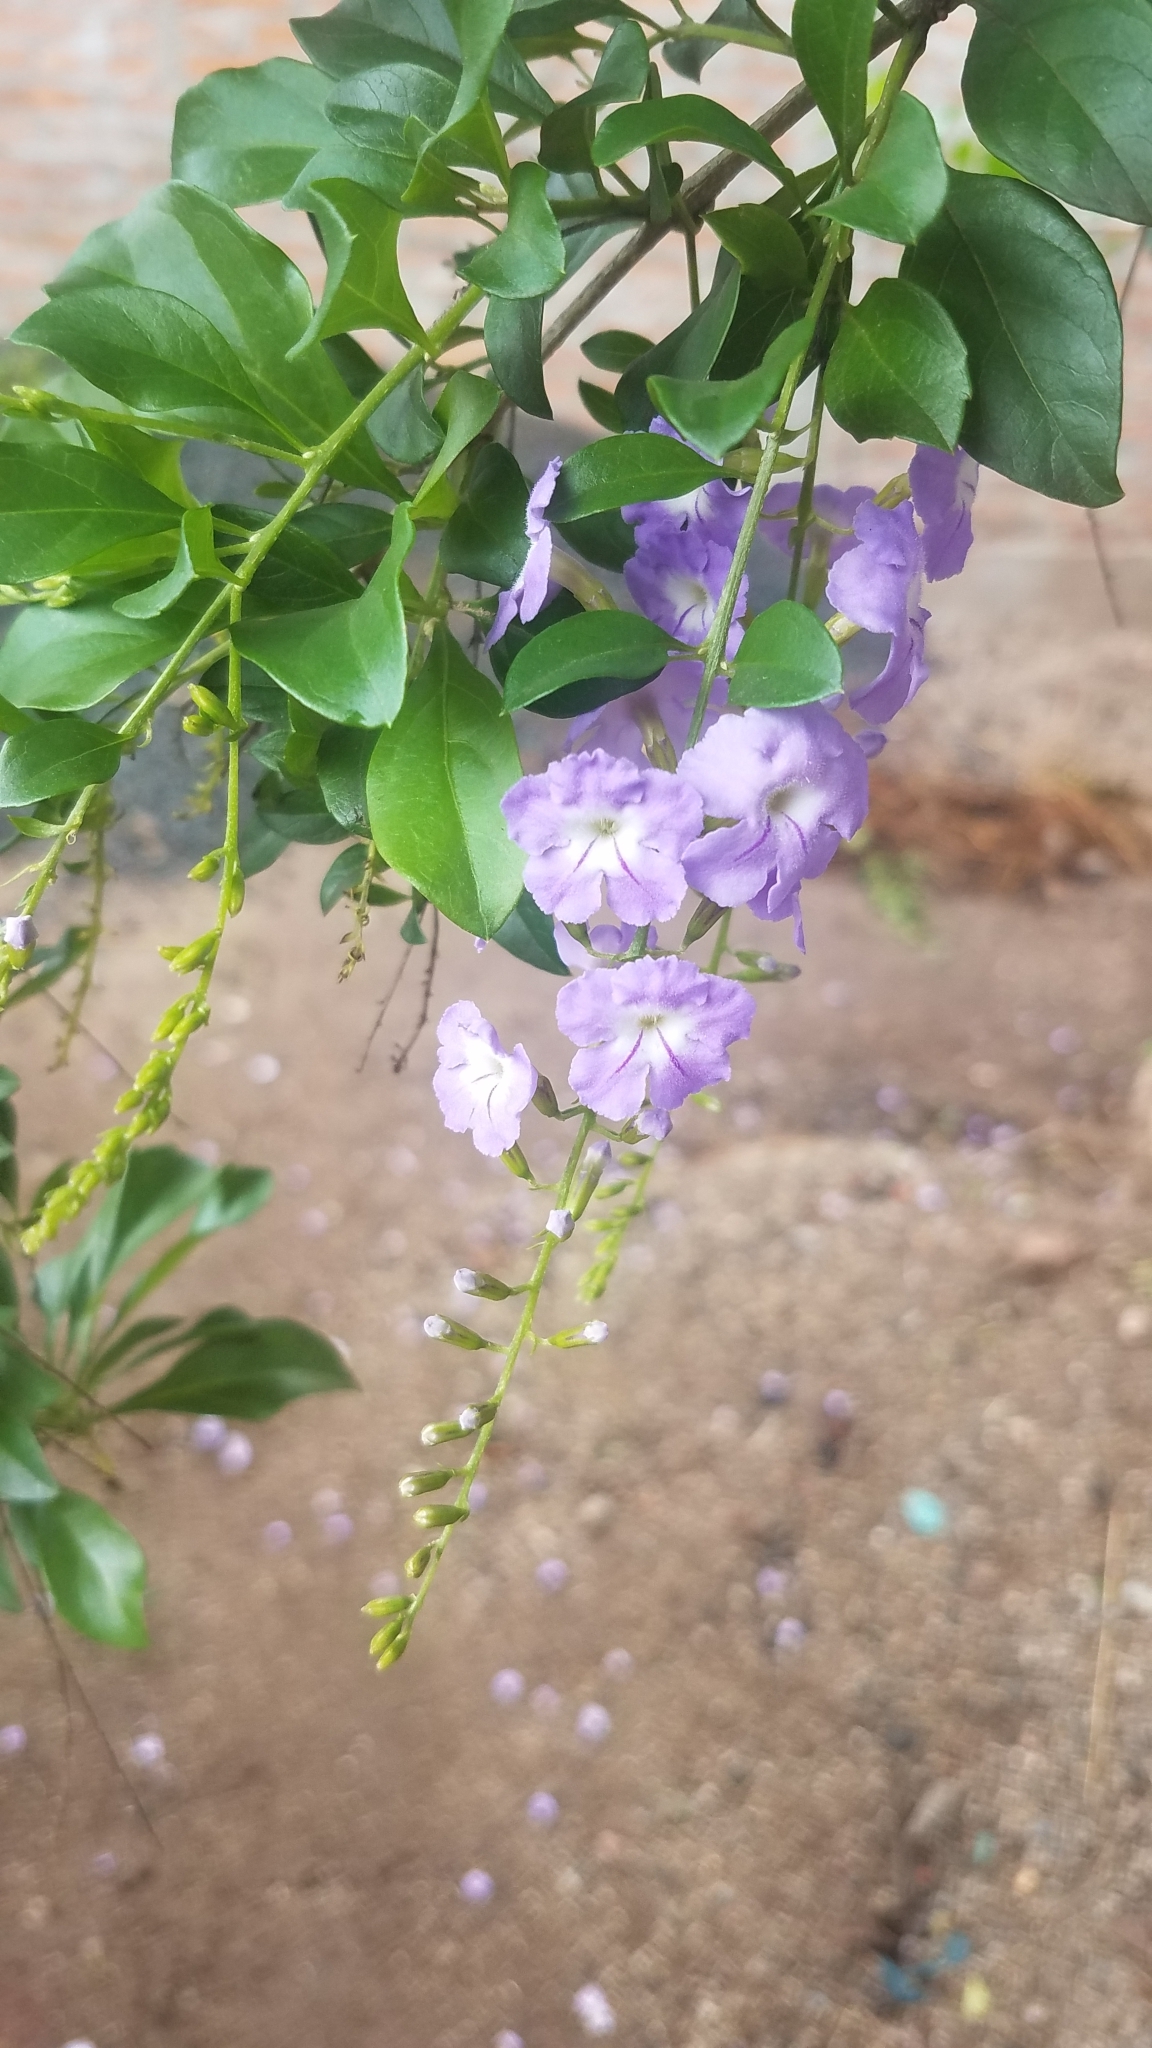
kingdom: Plantae
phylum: Tracheophyta
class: Magnoliopsida
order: Lamiales
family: Verbenaceae
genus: Duranta
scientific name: Duranta erecta
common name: Golden dewdrops
